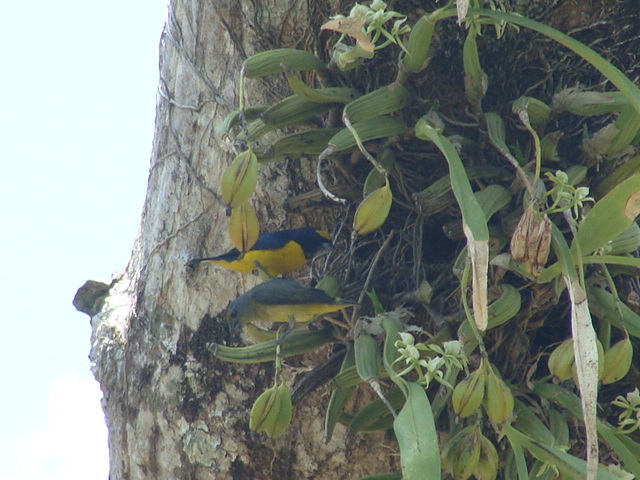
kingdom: Animalia
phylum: Chordata
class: Aves
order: Passeriformes
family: Fringillidae
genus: Euphonia
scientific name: Euphonia affinis
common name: Scrub euphonia
